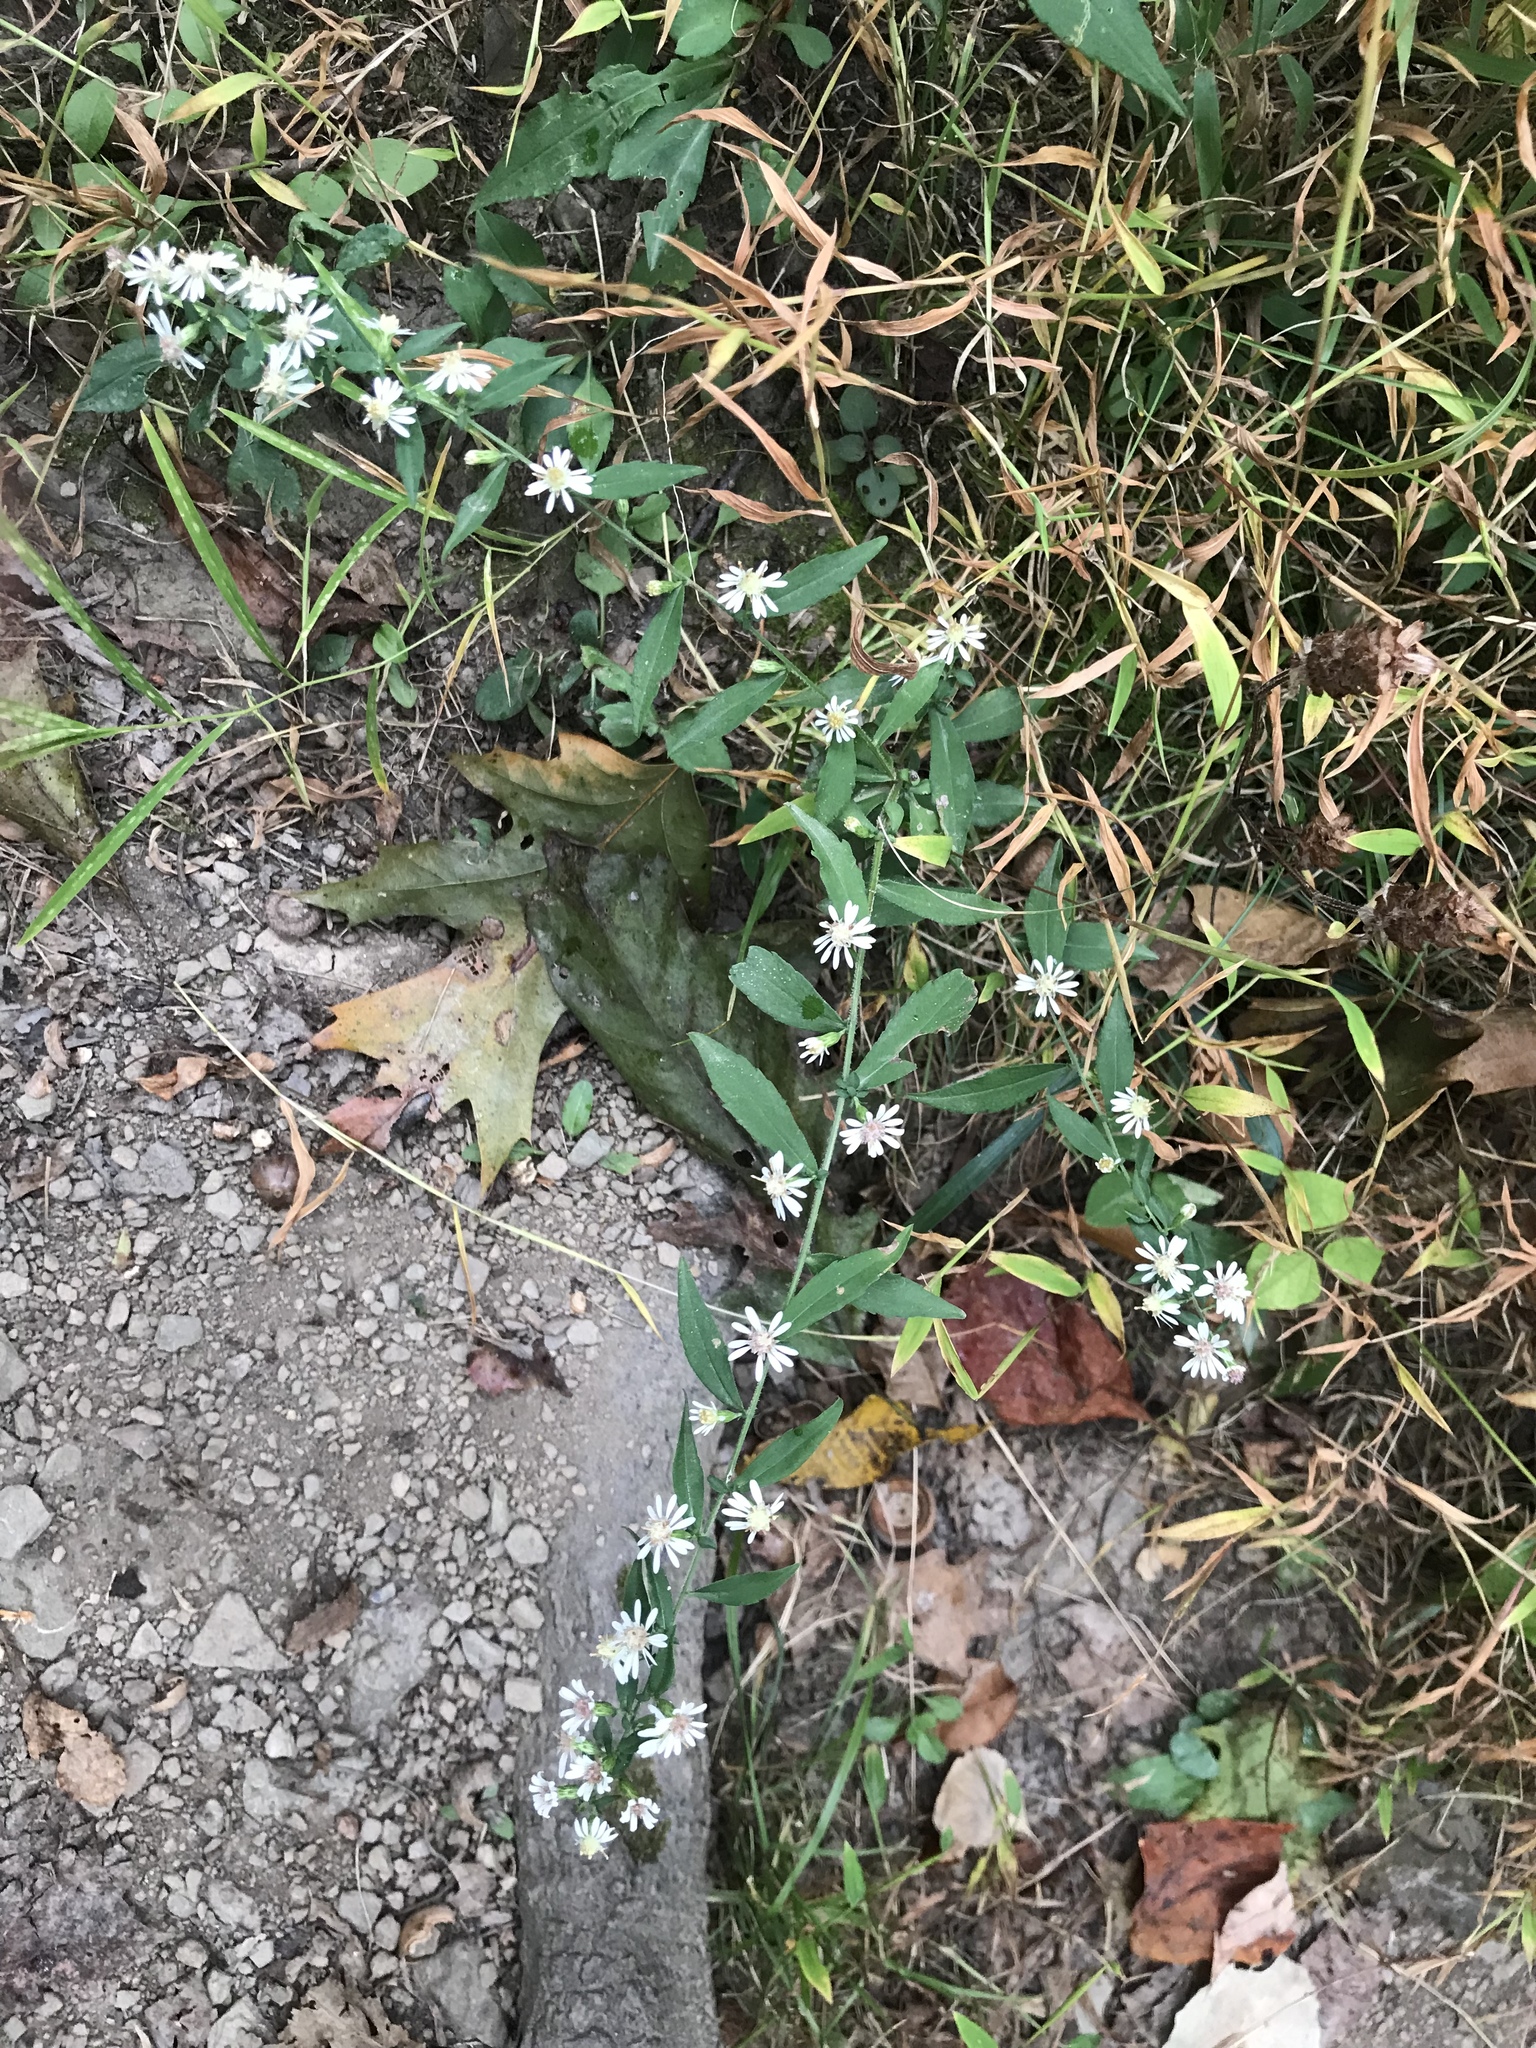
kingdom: Plantae
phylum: Tracheophyta
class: Magnoliopsida
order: Asterales
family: Asteraceae
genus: Symphyotrichum
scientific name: Symphyotrichum lateriflorum
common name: Calico aster
